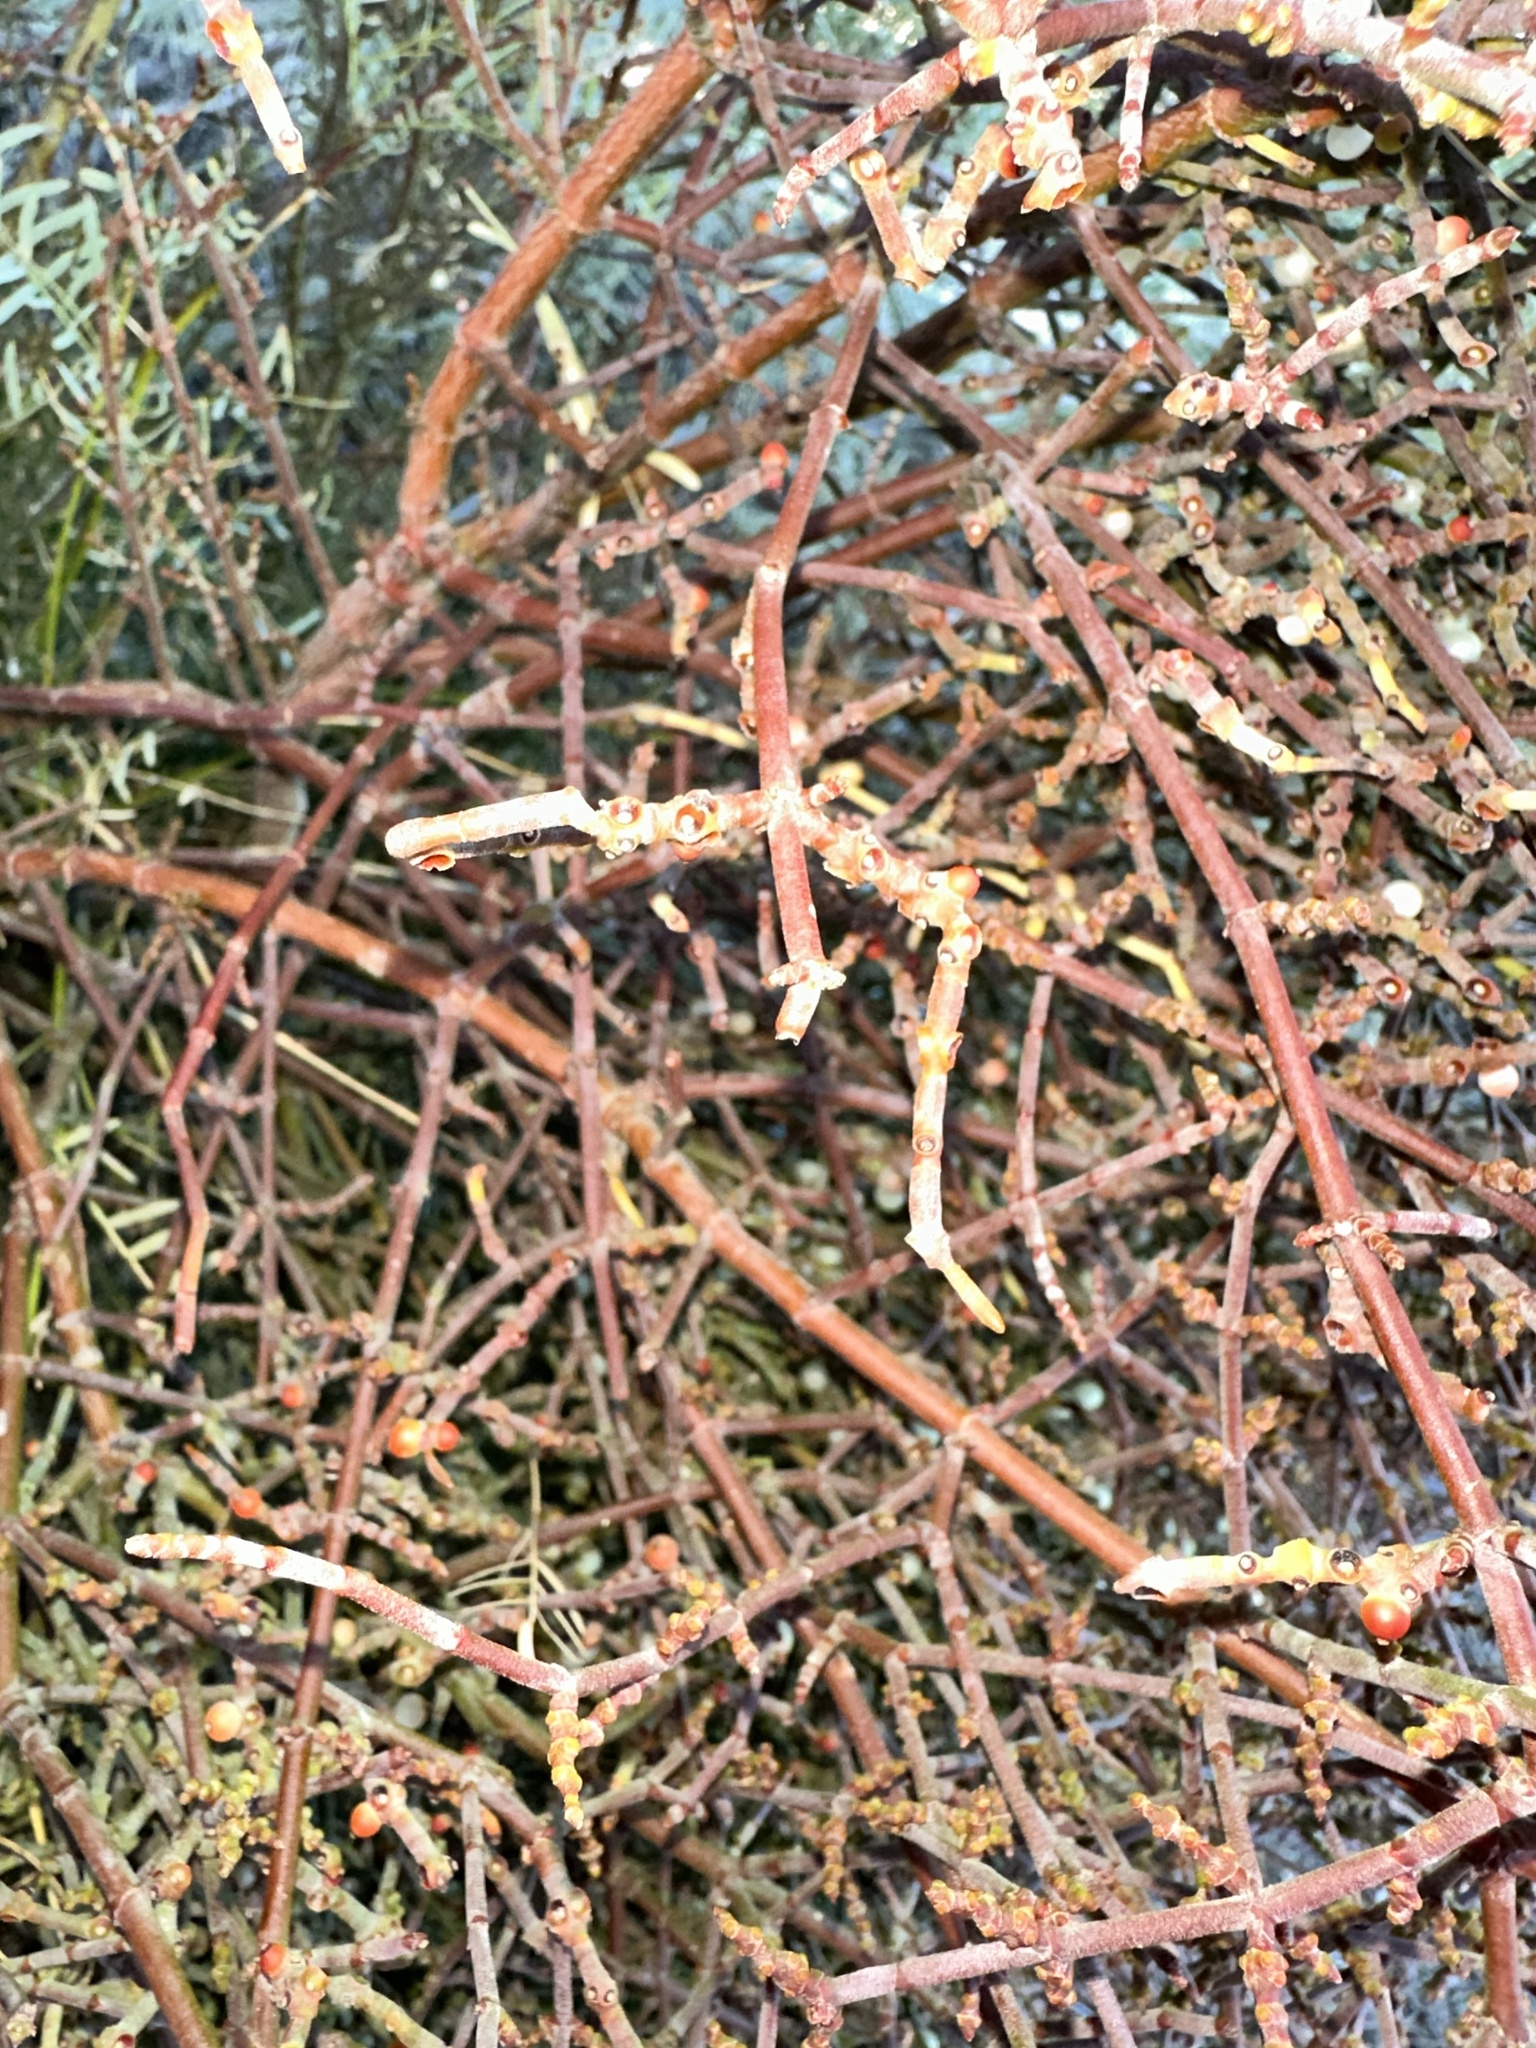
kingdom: Plantae
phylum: Tracheophyta
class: Magnoliopsida
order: Santalales
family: Viscaceae
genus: Phoradendron
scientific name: Phoradendron californicum
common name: Acacia mistletoe
